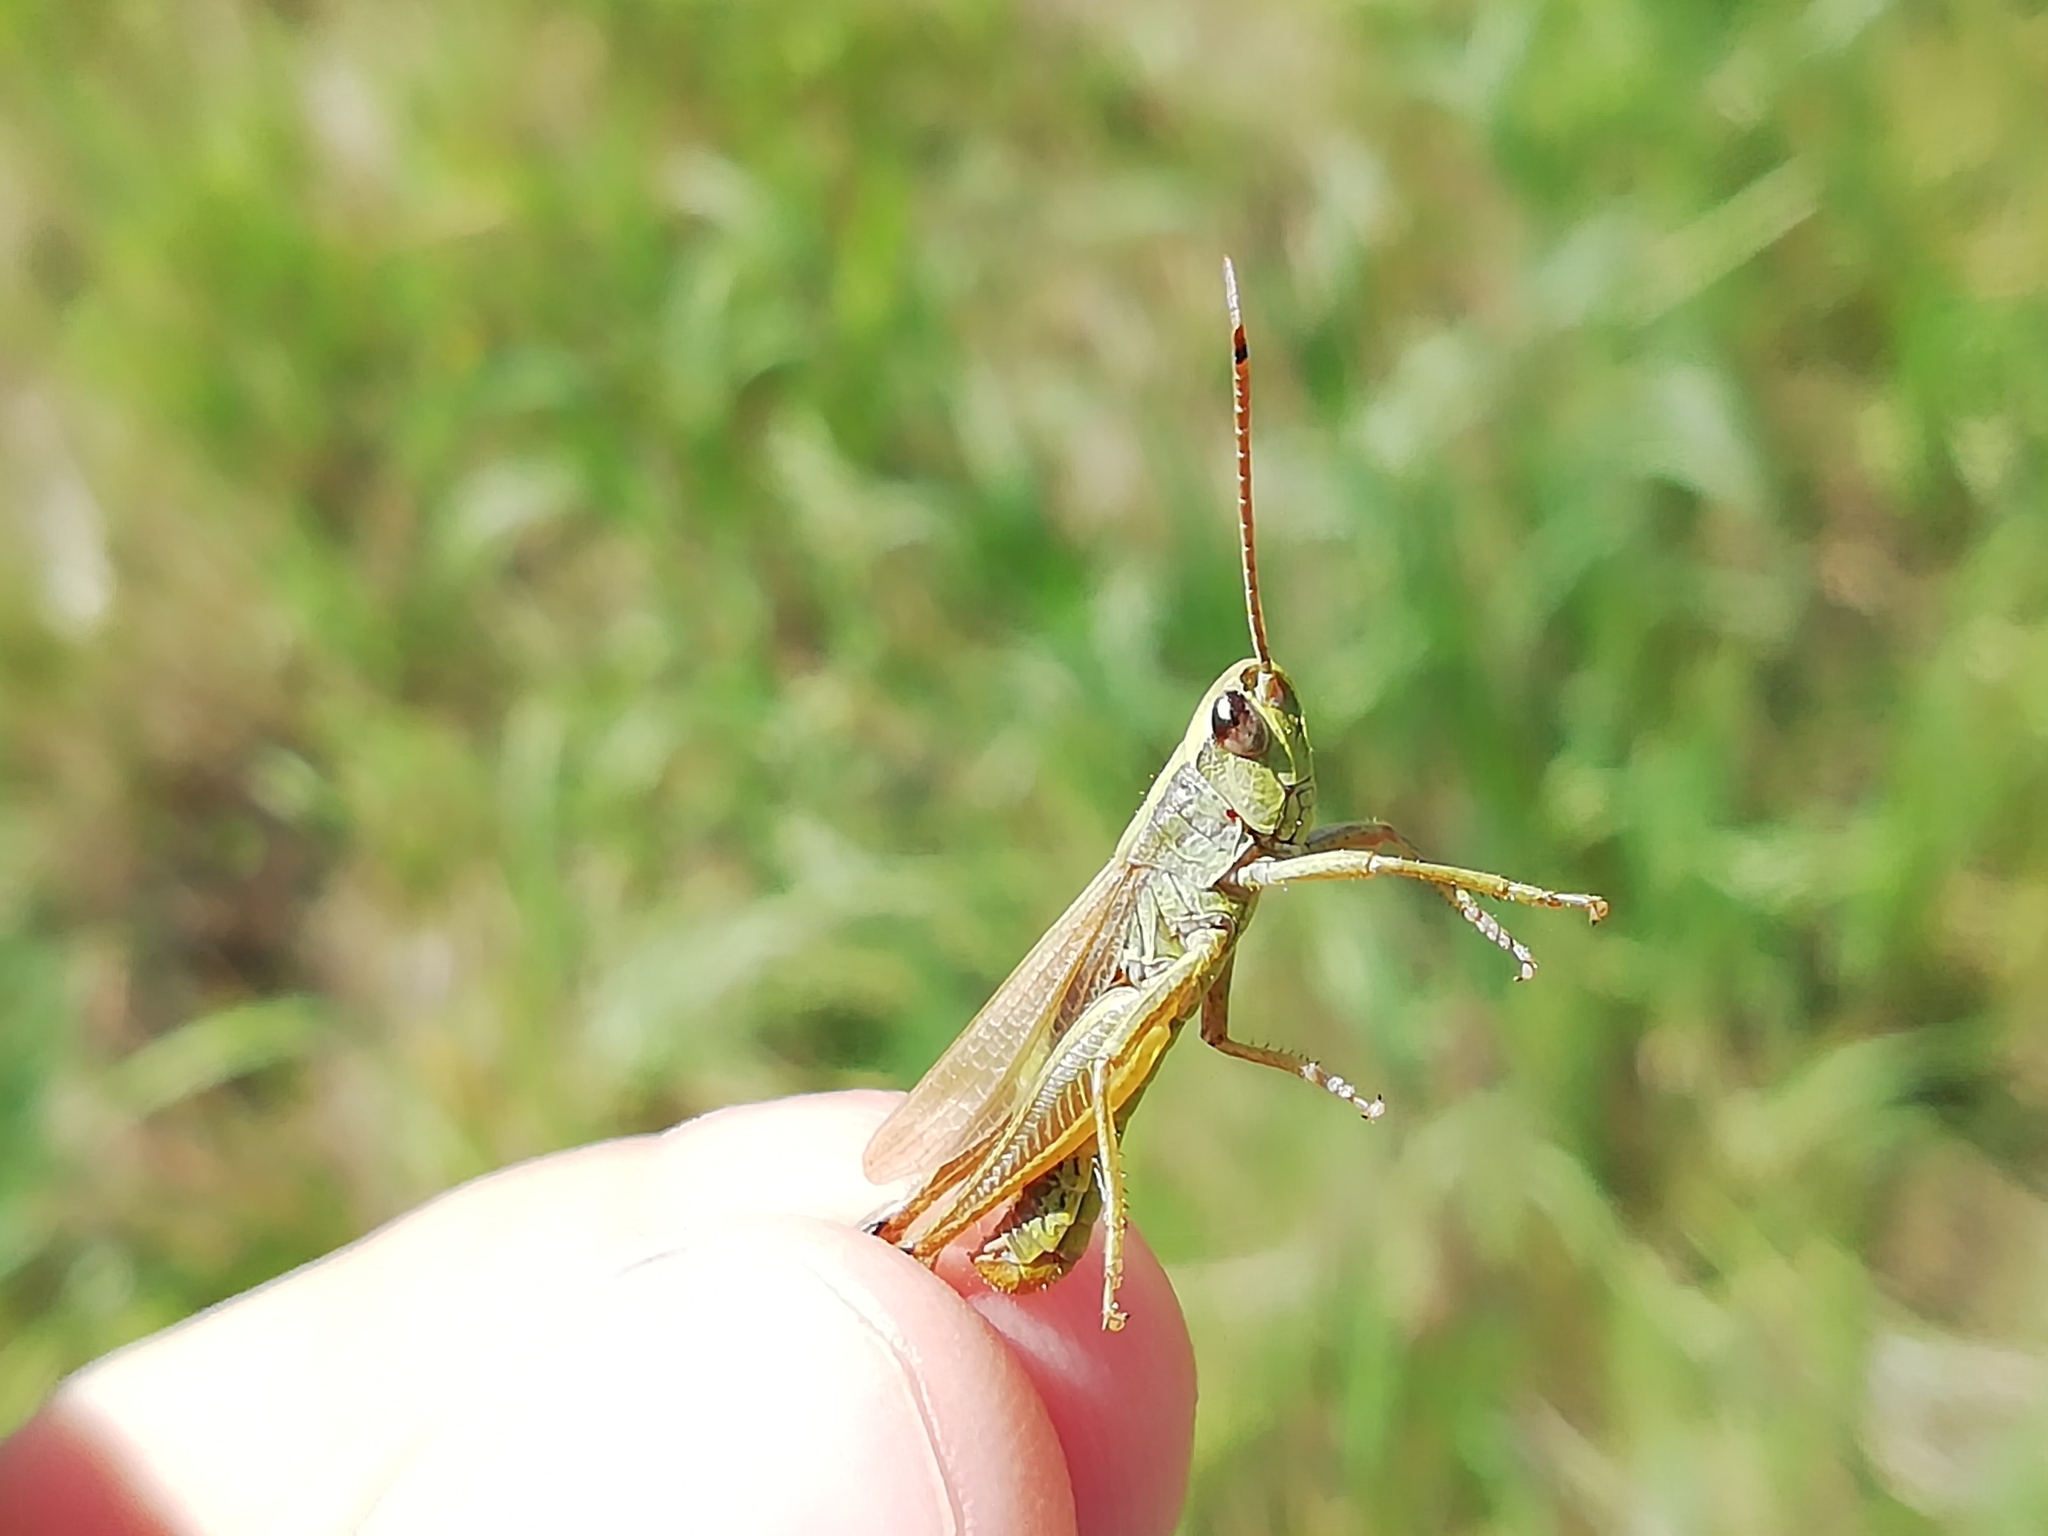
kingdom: Animalia
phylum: Arthropoda
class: Insecta
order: Orthoptera
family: Acrididae
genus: Pseudochorthippus
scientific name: Pseudochorthippus parallelus
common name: Meadow grasshopper
